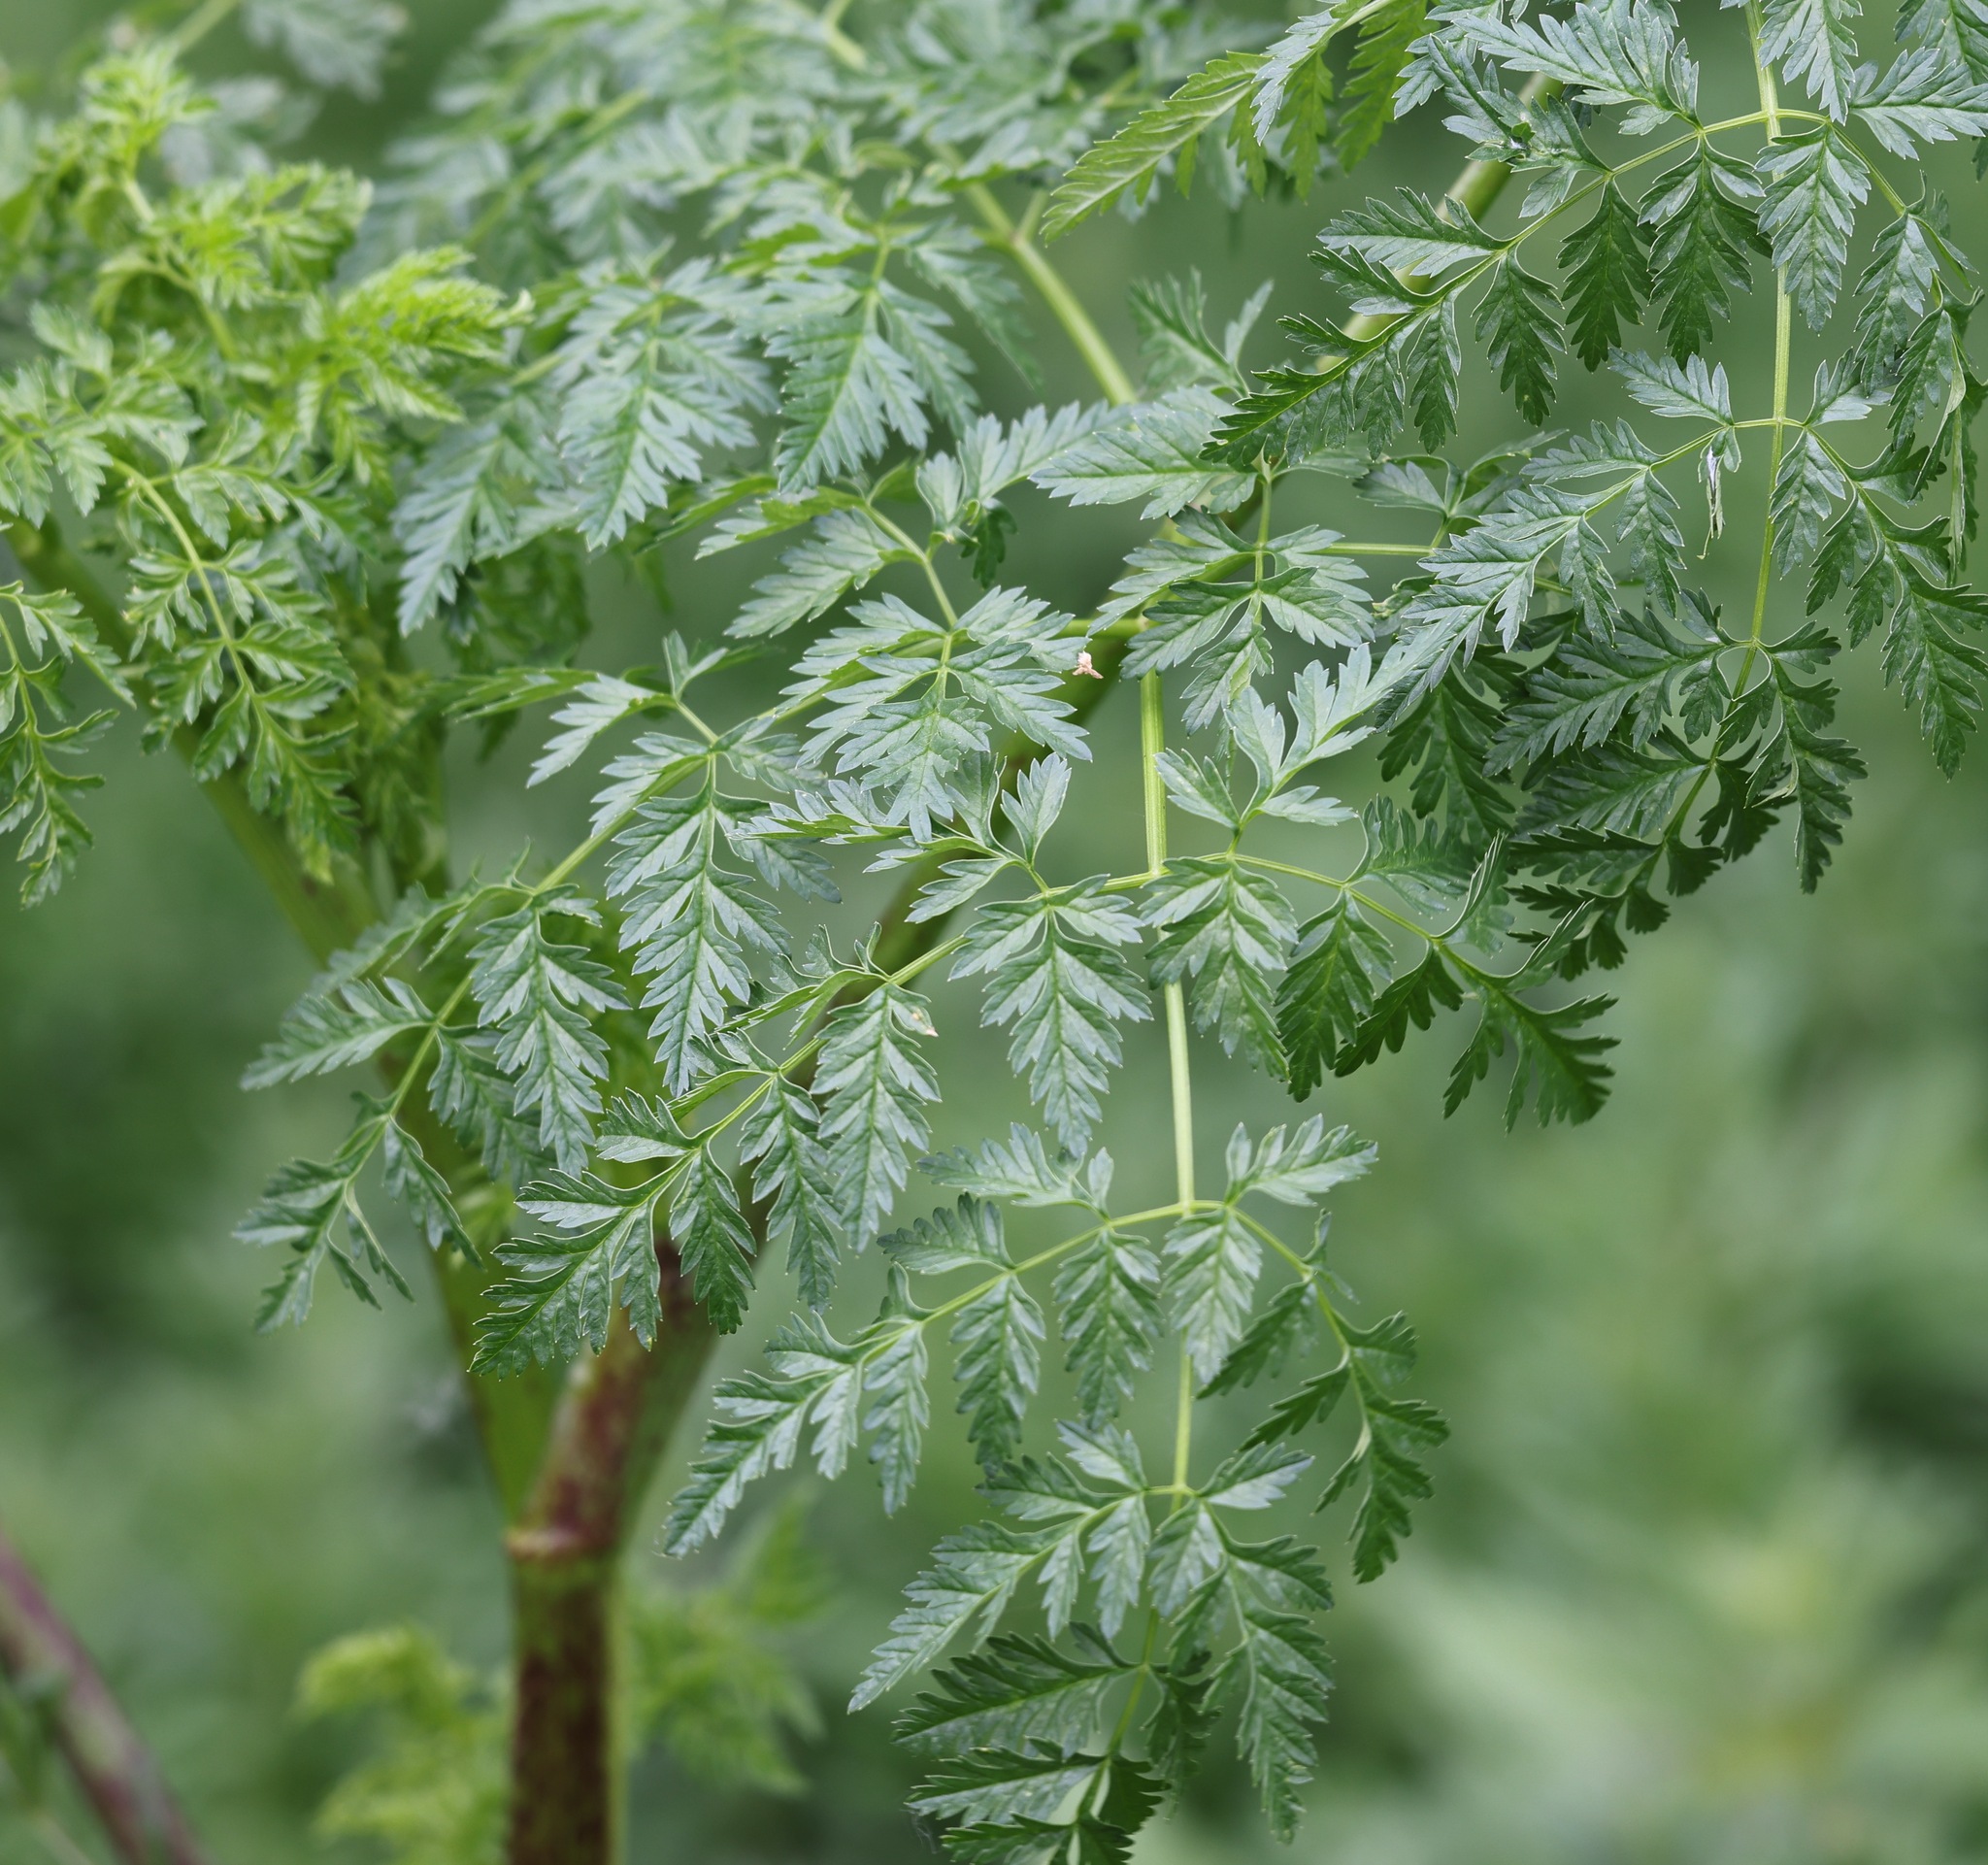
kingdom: Plantae
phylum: Tracheophyta
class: Magnoliopsida
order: Apiales
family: Apiaceae
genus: Conium
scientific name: Conium maculatum
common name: Hemlock
